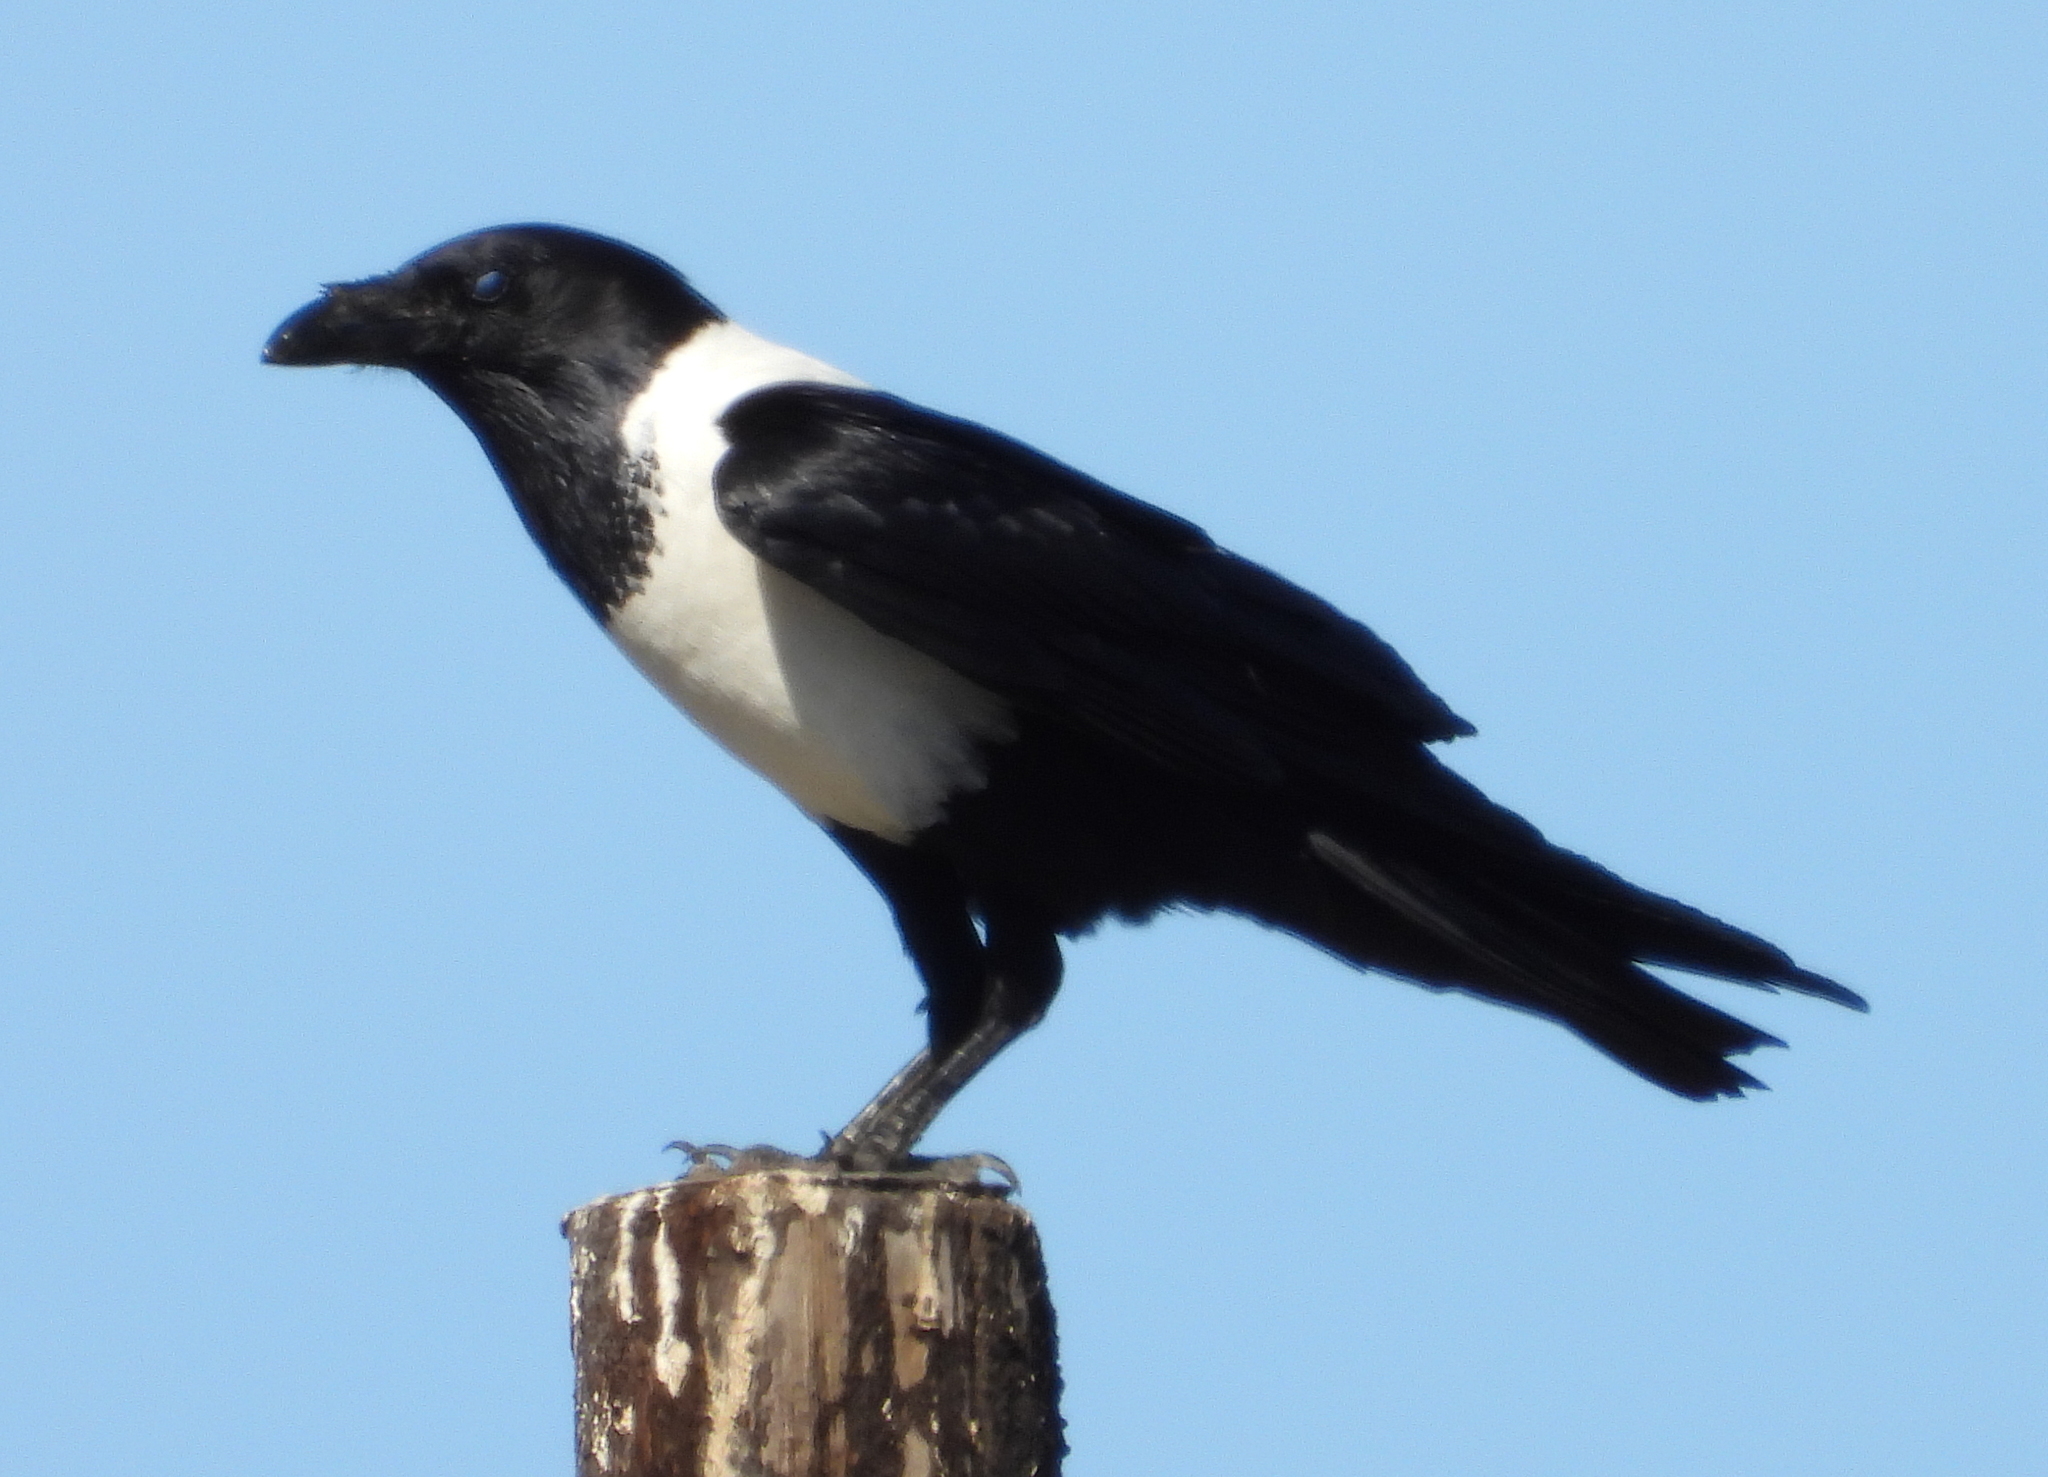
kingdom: Animalia
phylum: Chordata
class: Aves
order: Passeriformes
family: Corvidae
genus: Corvus
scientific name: Corvus albus
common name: Pied crow
